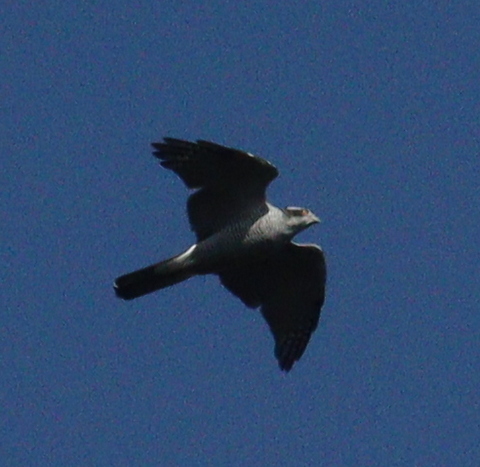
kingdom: Animalia
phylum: Chordata
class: Aves
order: Accipitriformes
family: Accipitridae
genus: Accipiter
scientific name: Accipiter gentilis
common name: Northern goshawk
